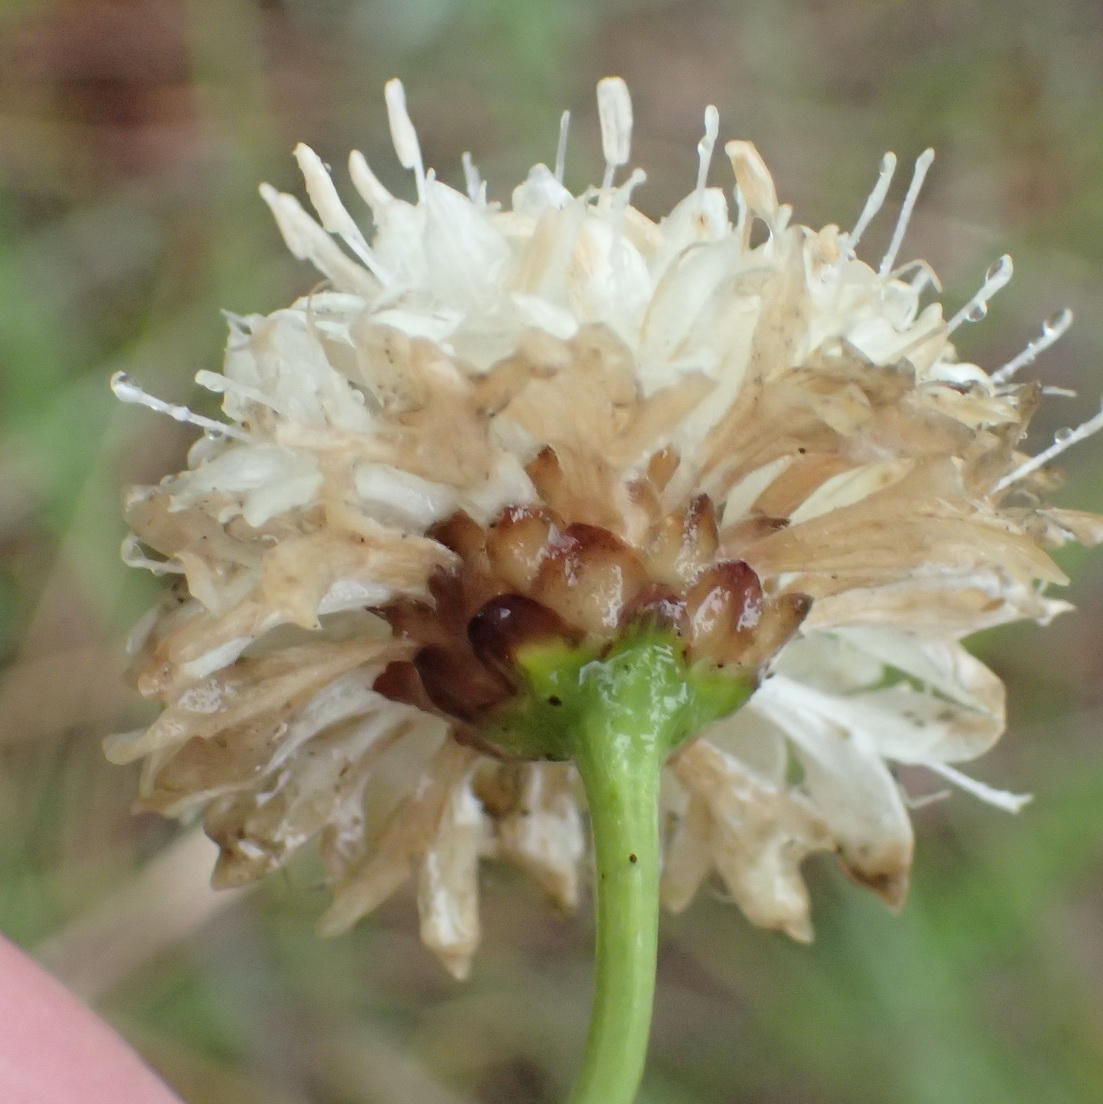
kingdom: Plantae
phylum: Tracheophyta
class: Magnoliopsida
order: Dipsacales
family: Caprifoliaceae
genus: Cephalaria
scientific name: Cephalaria humilis
